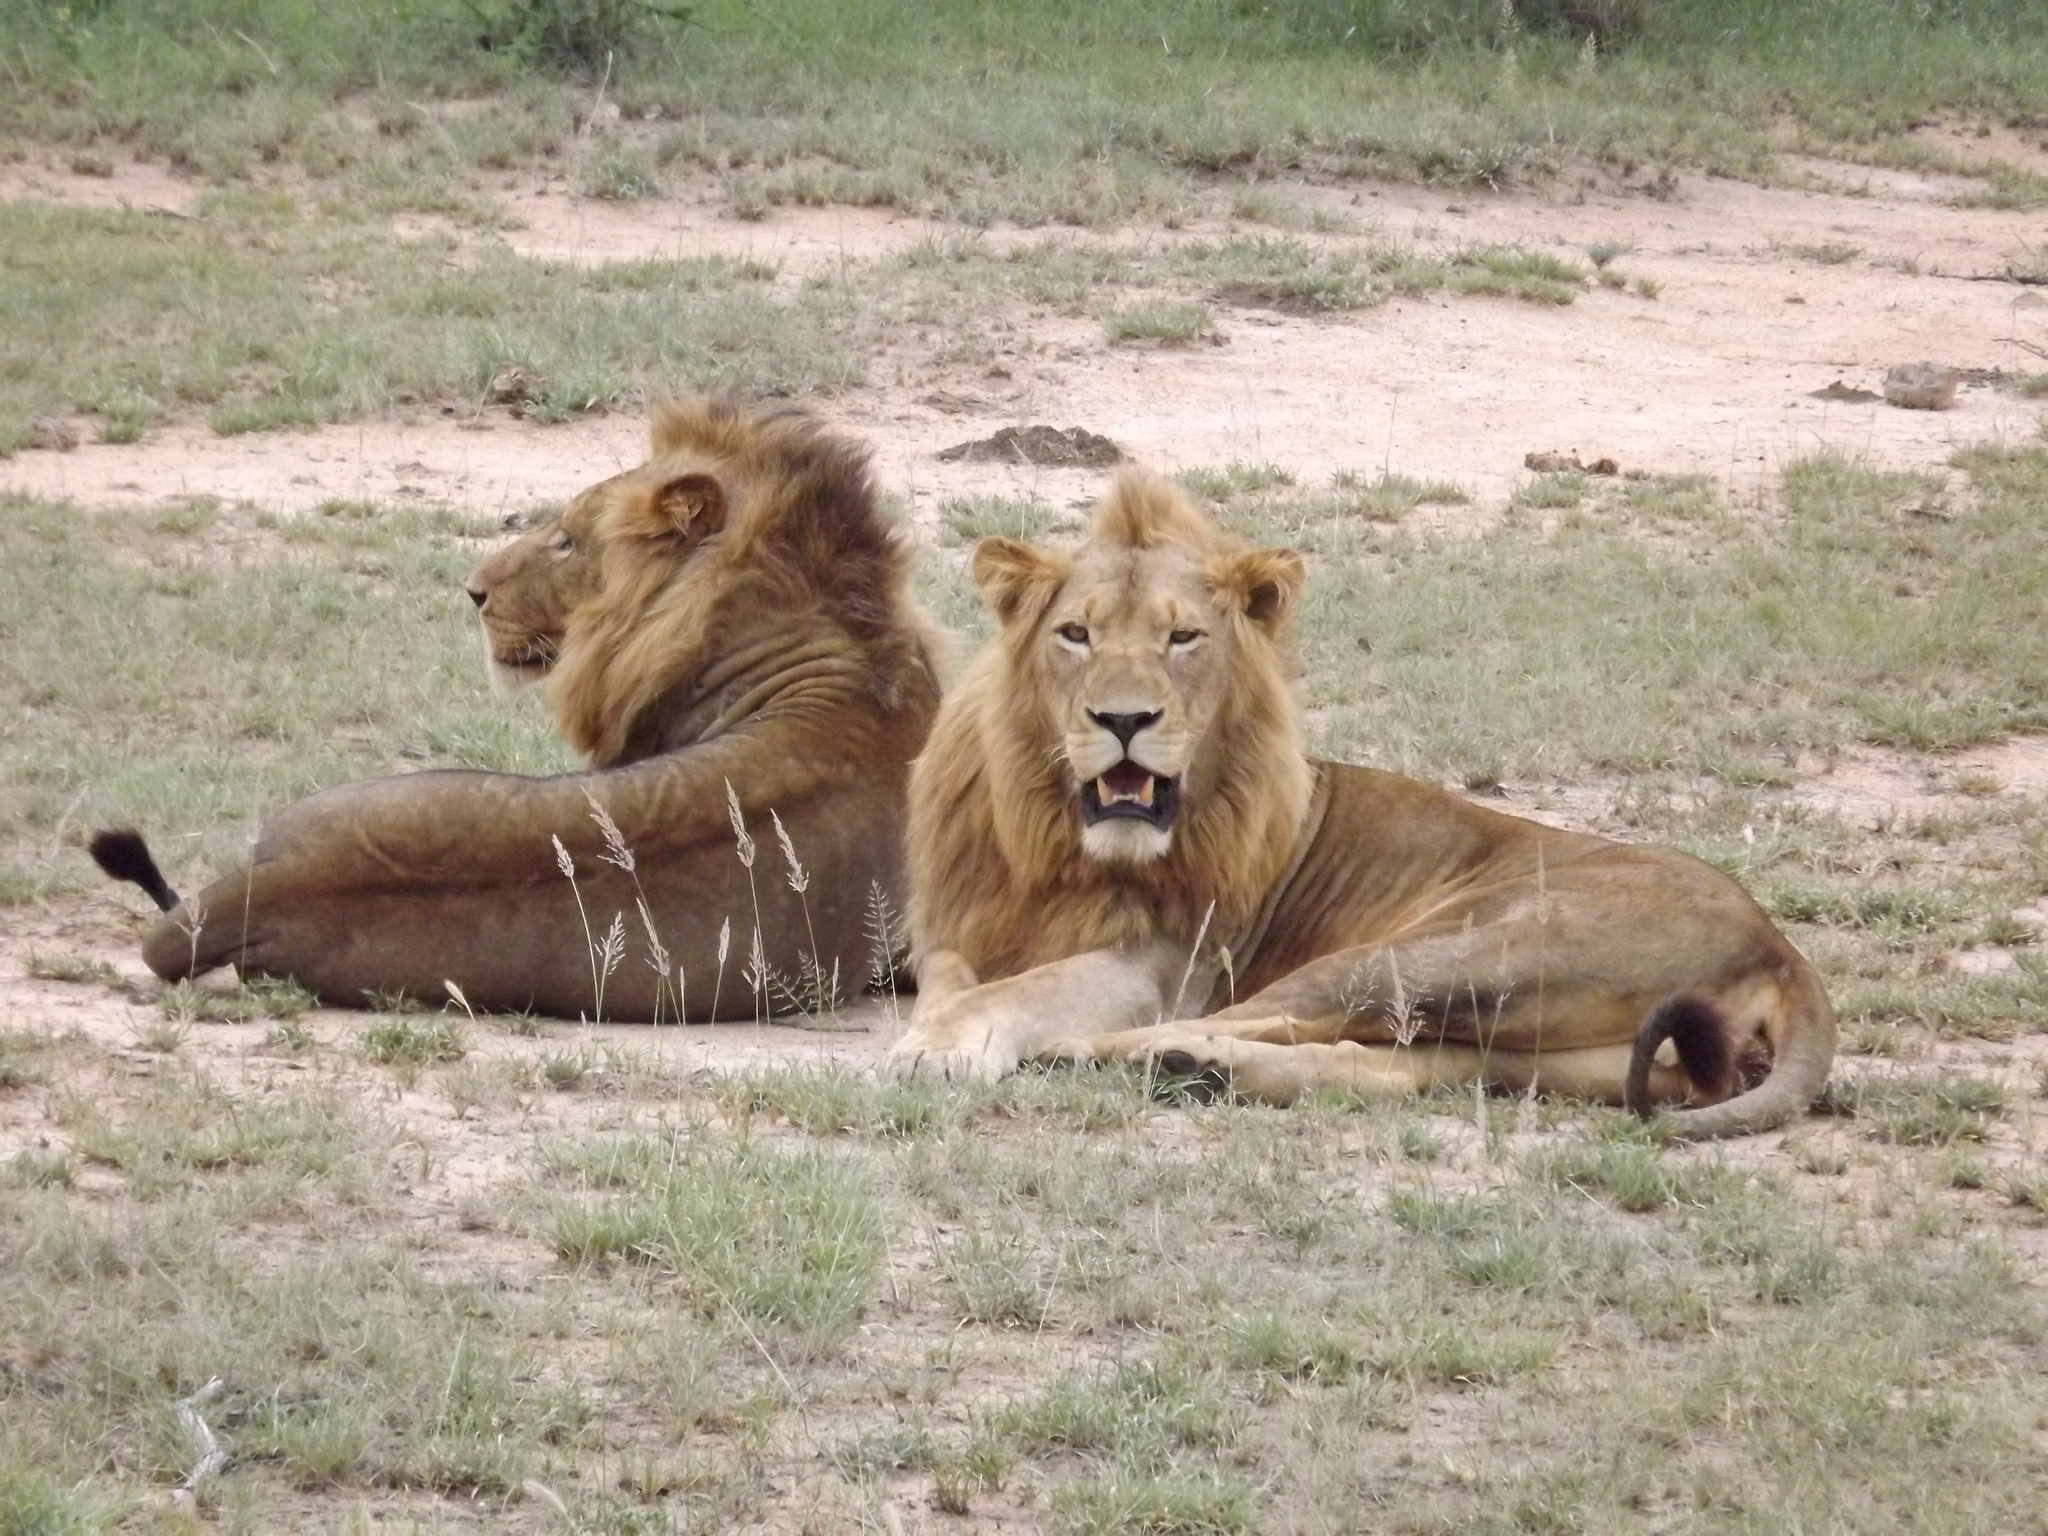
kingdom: Animalia
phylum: Chordata
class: Mammalia
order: Carnivora
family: Felidae
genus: Panthera
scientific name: Panthera leo
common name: Lion
